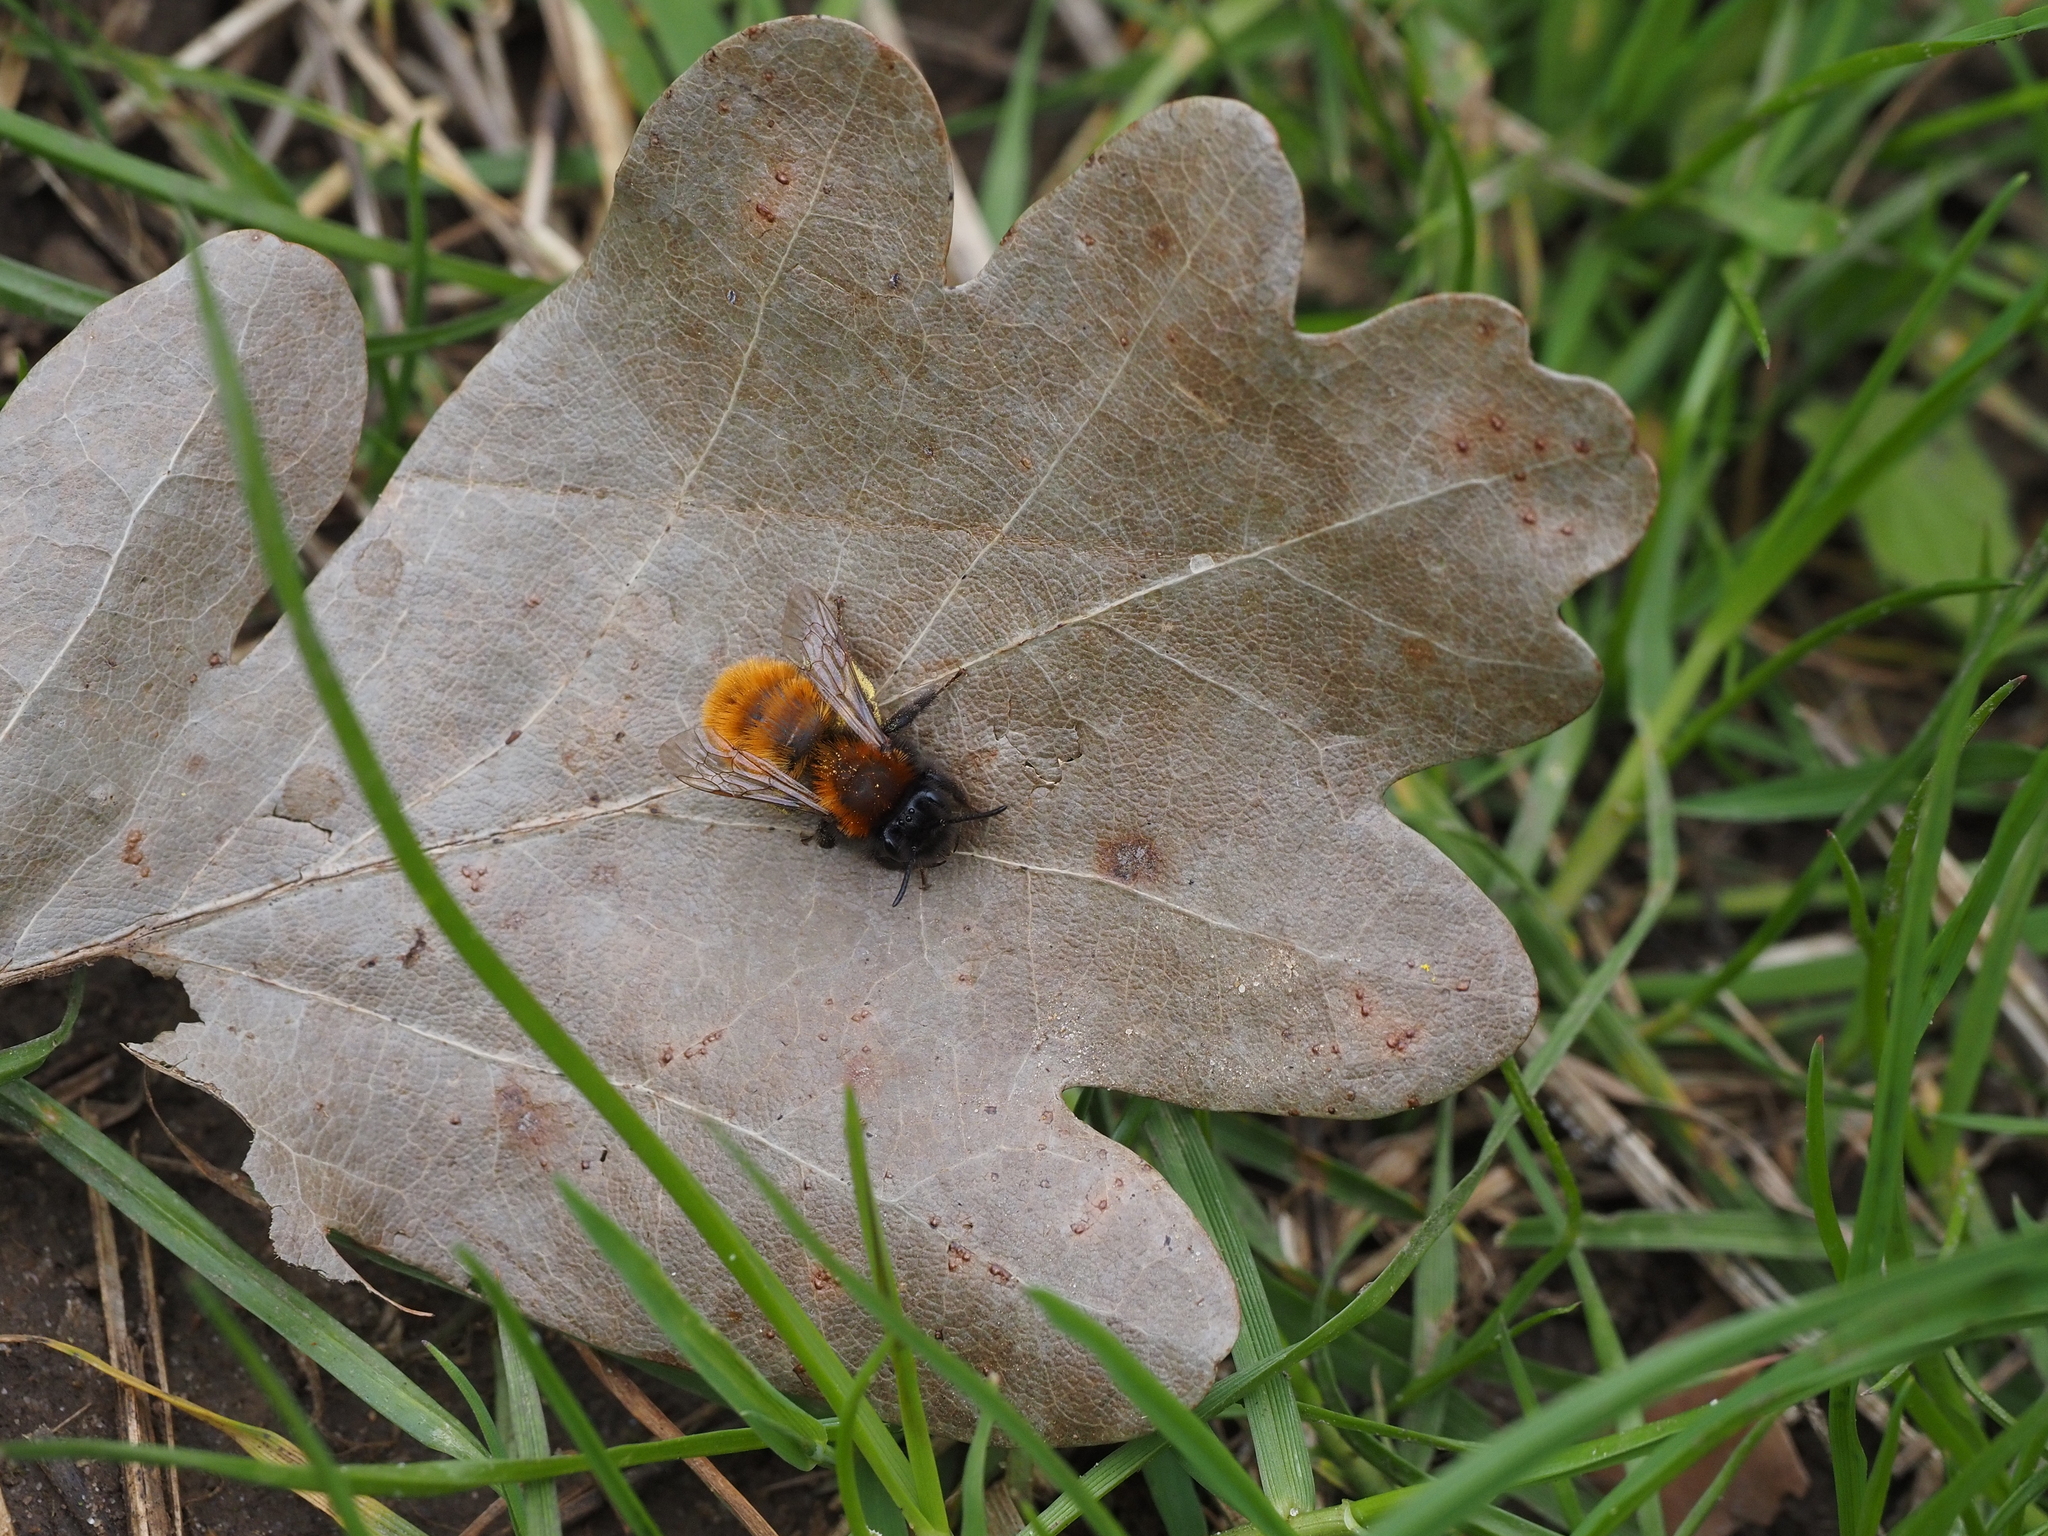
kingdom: Animalia
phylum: Arthropoda
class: Insecta
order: Hymenoptera
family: Andrenidae
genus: Andrena
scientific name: Andrena fulva
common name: Tawny mining bee
